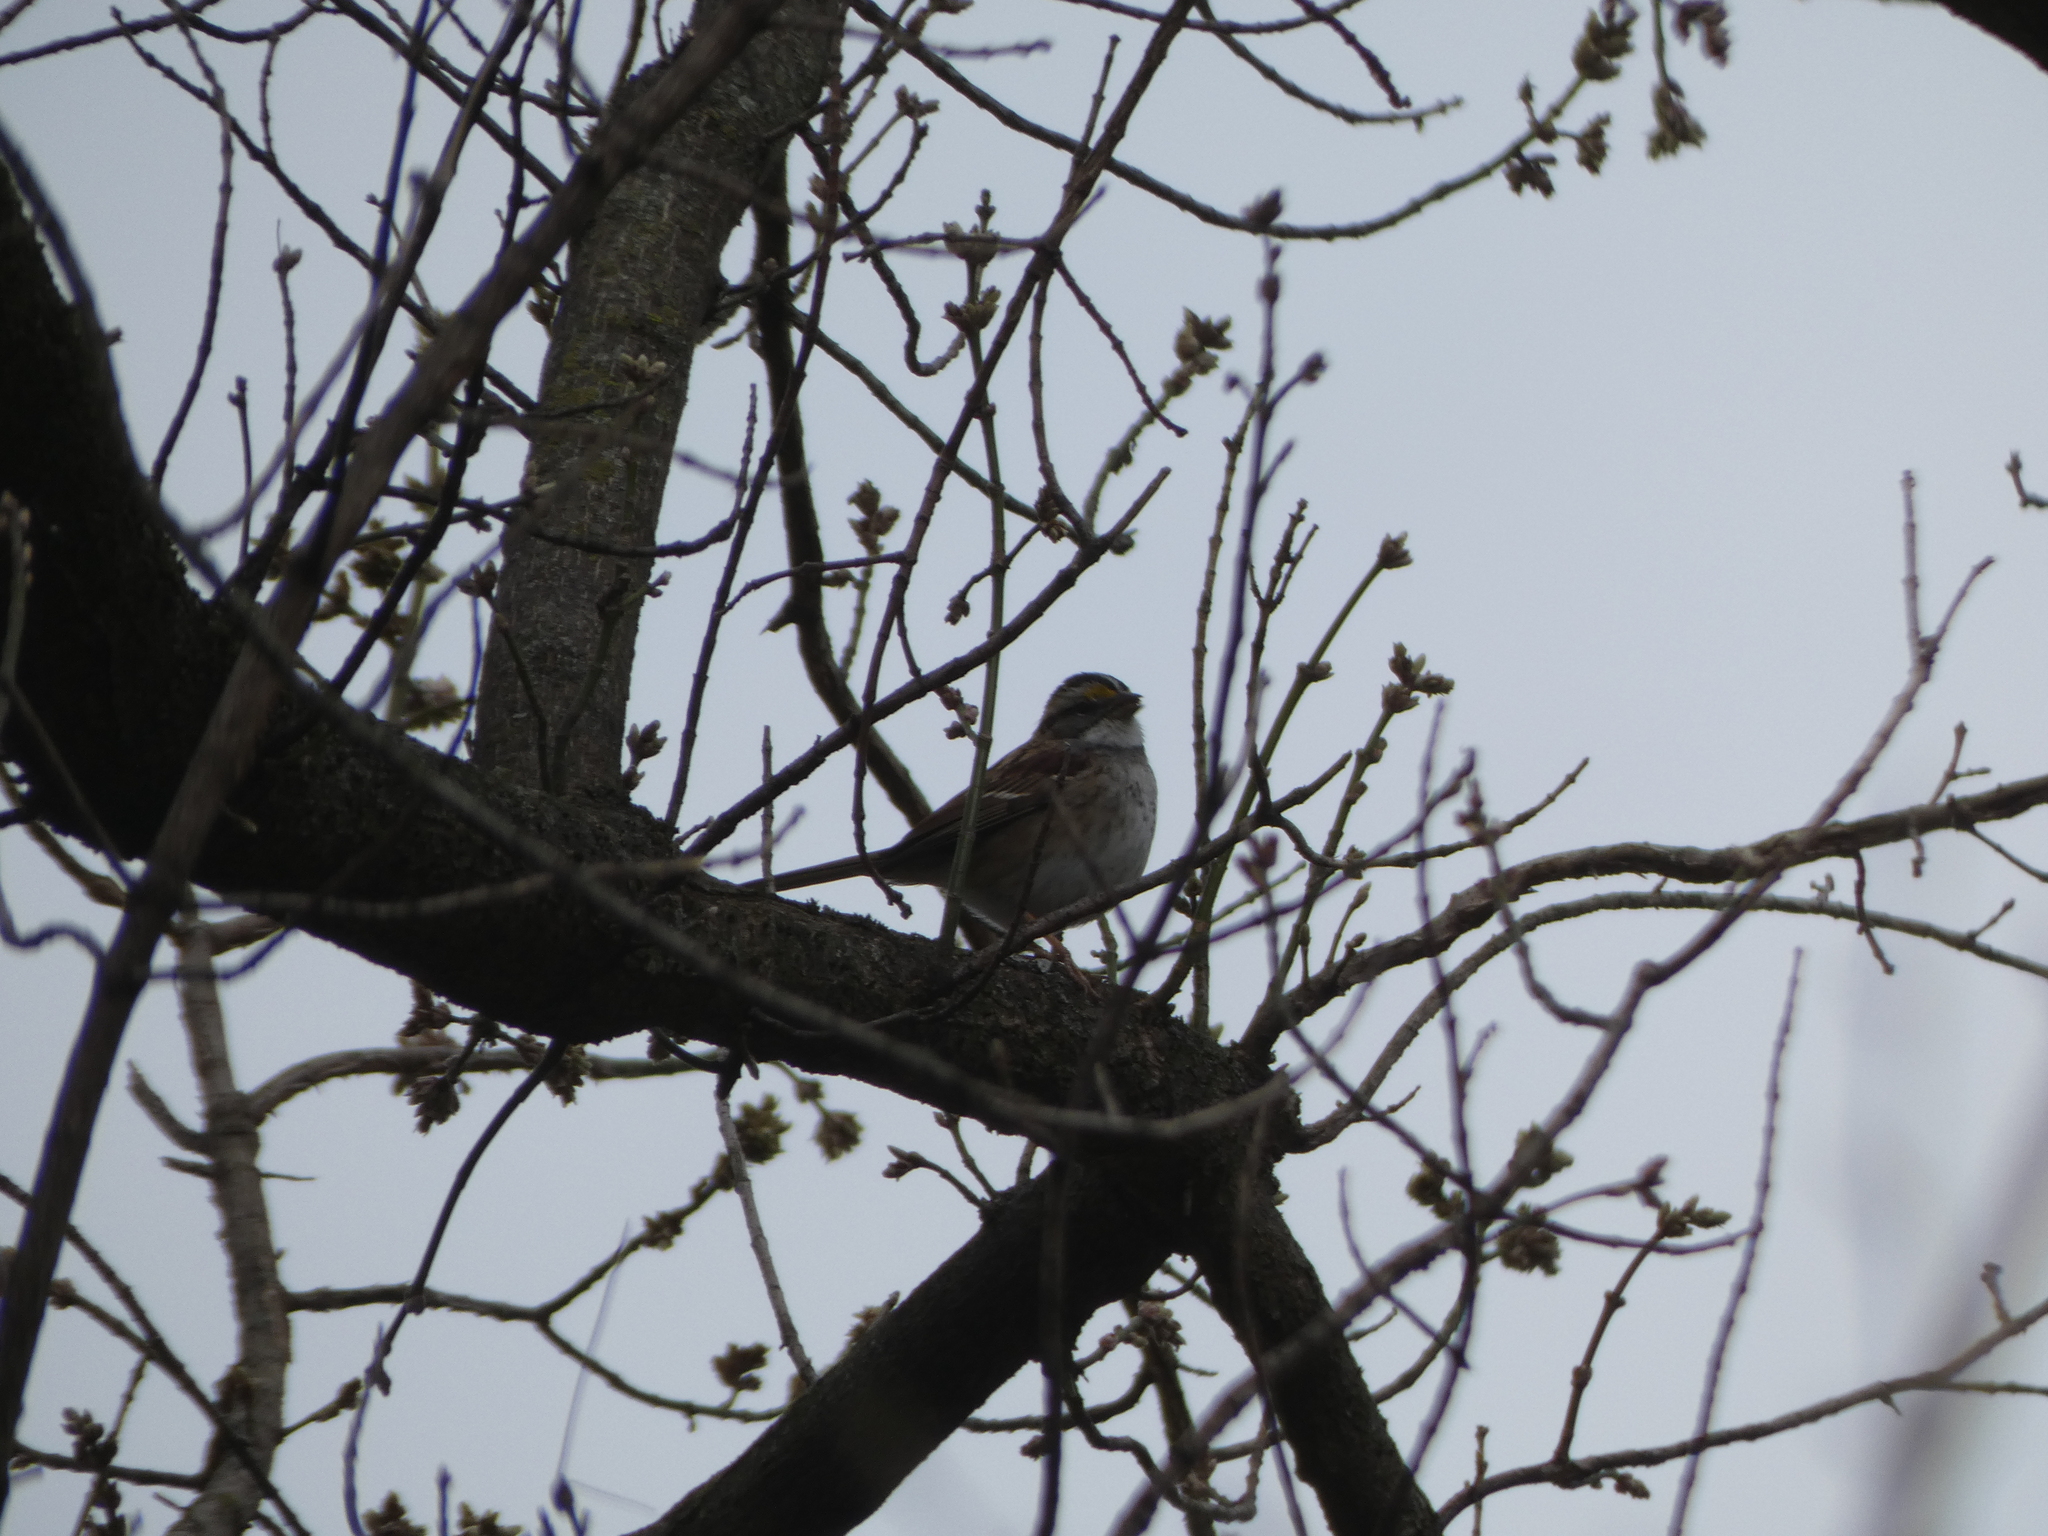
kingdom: Animalia
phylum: Chordata
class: Aves
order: Passeriformes
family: Passerellidae
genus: Zonotrichia
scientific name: Zonotrichia albicollis
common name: White-throated sparrow
